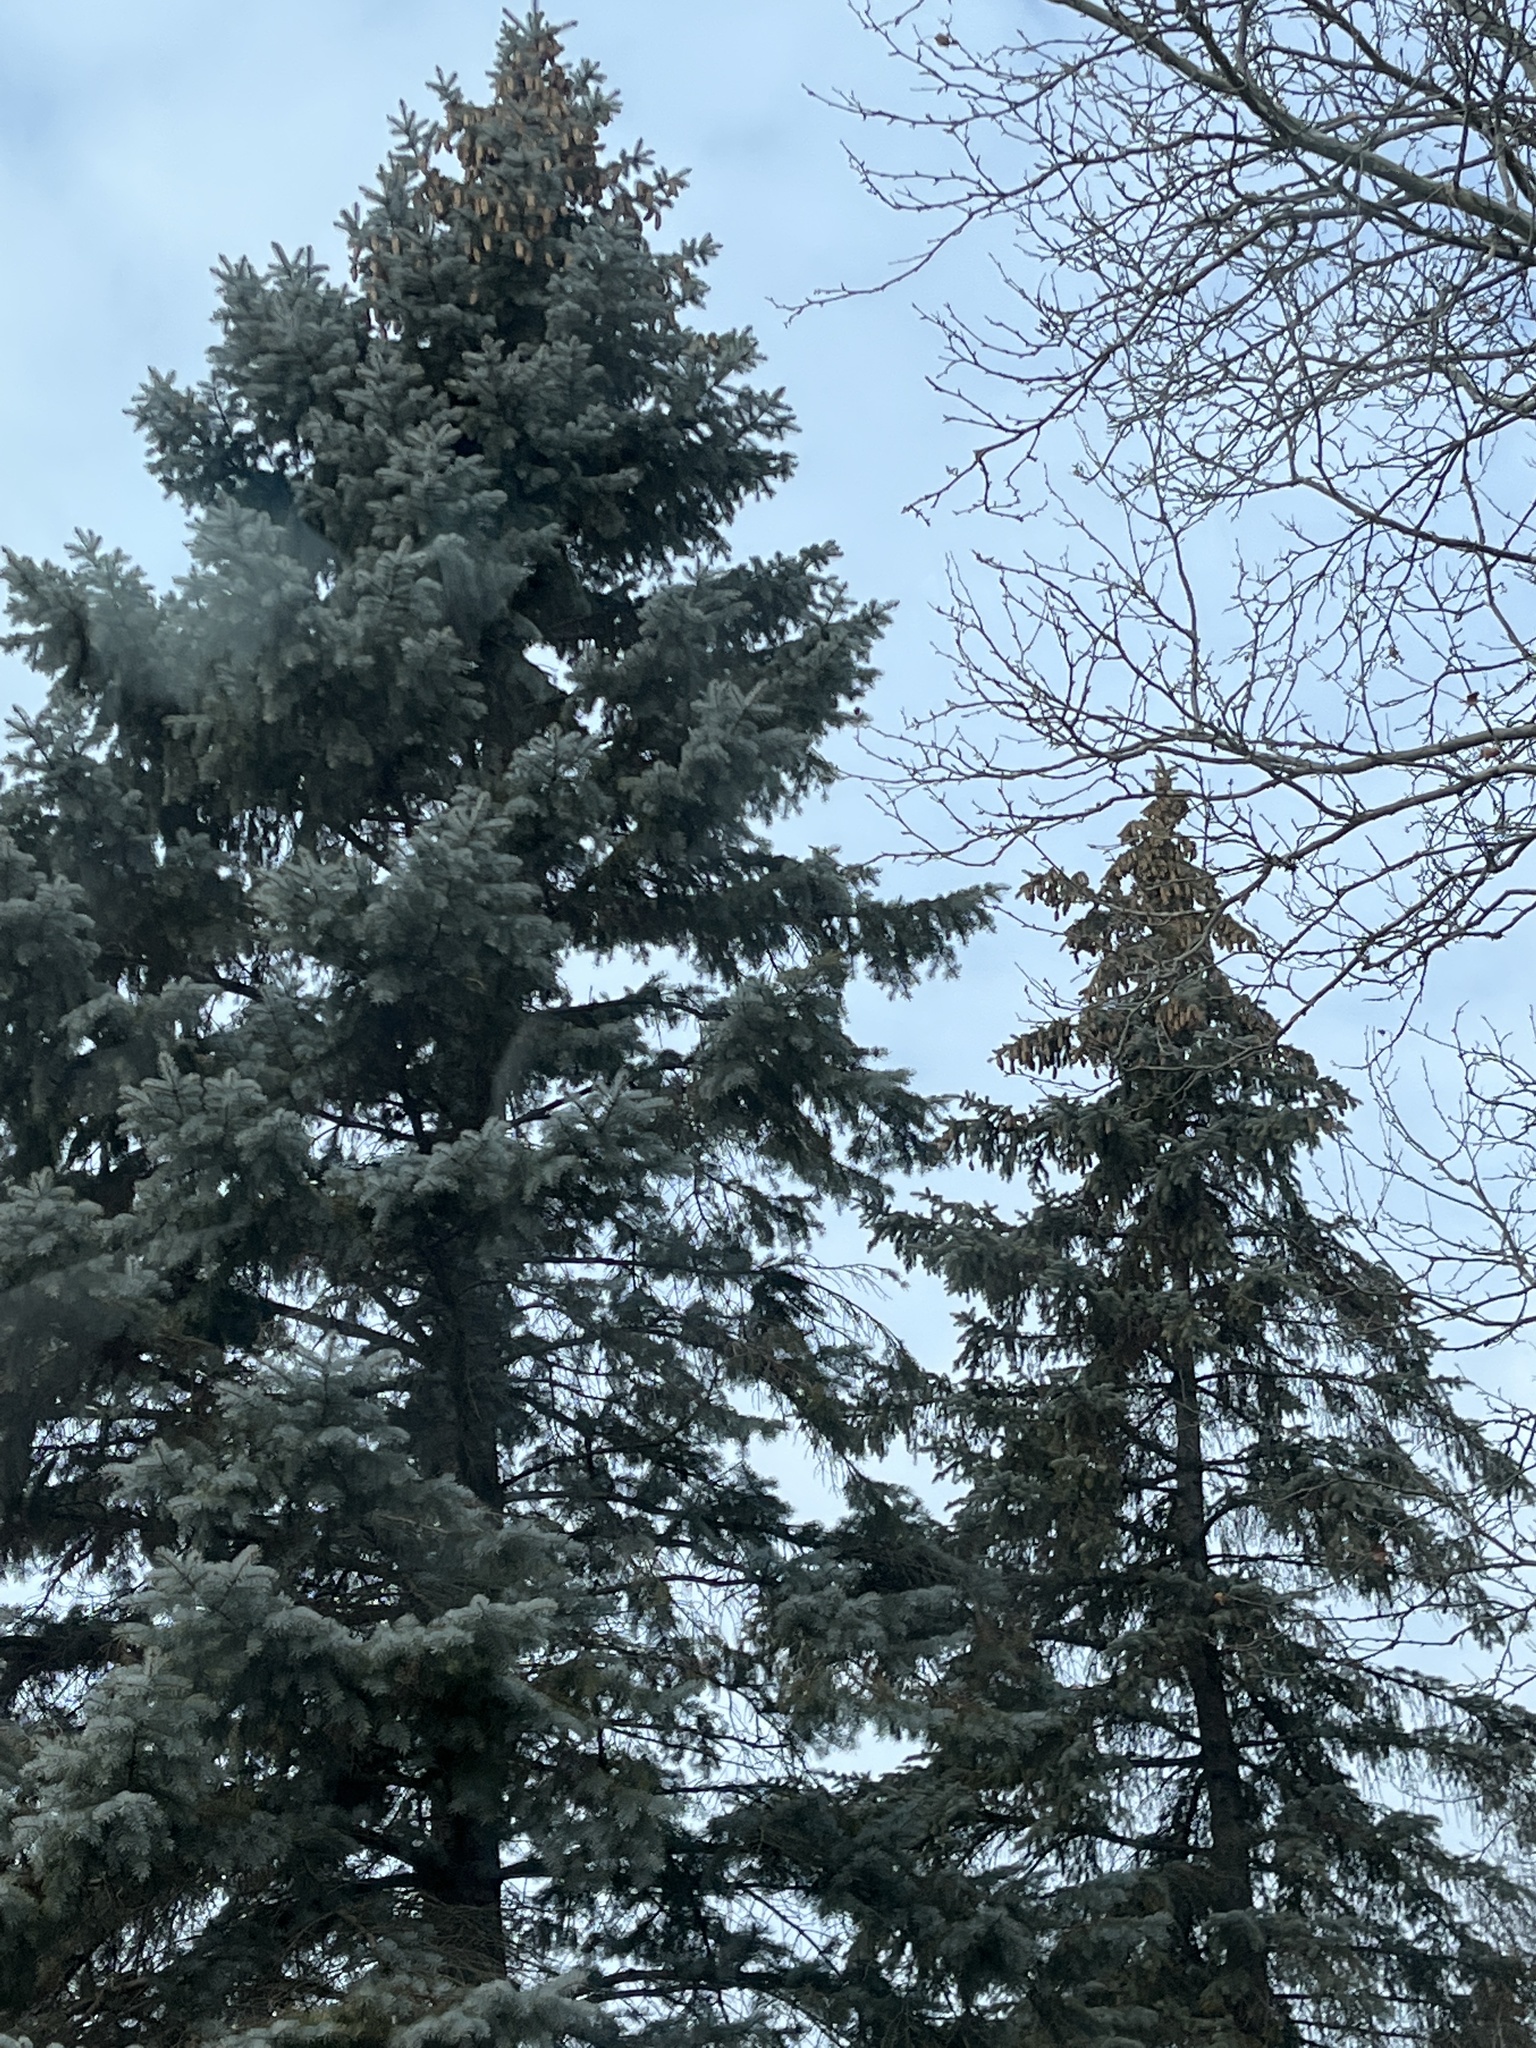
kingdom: Plantae
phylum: Tracheophyta
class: Pinopsida
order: Pinales
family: Pinaceae
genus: Picea
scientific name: Picea pungens
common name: Colorado spruce
